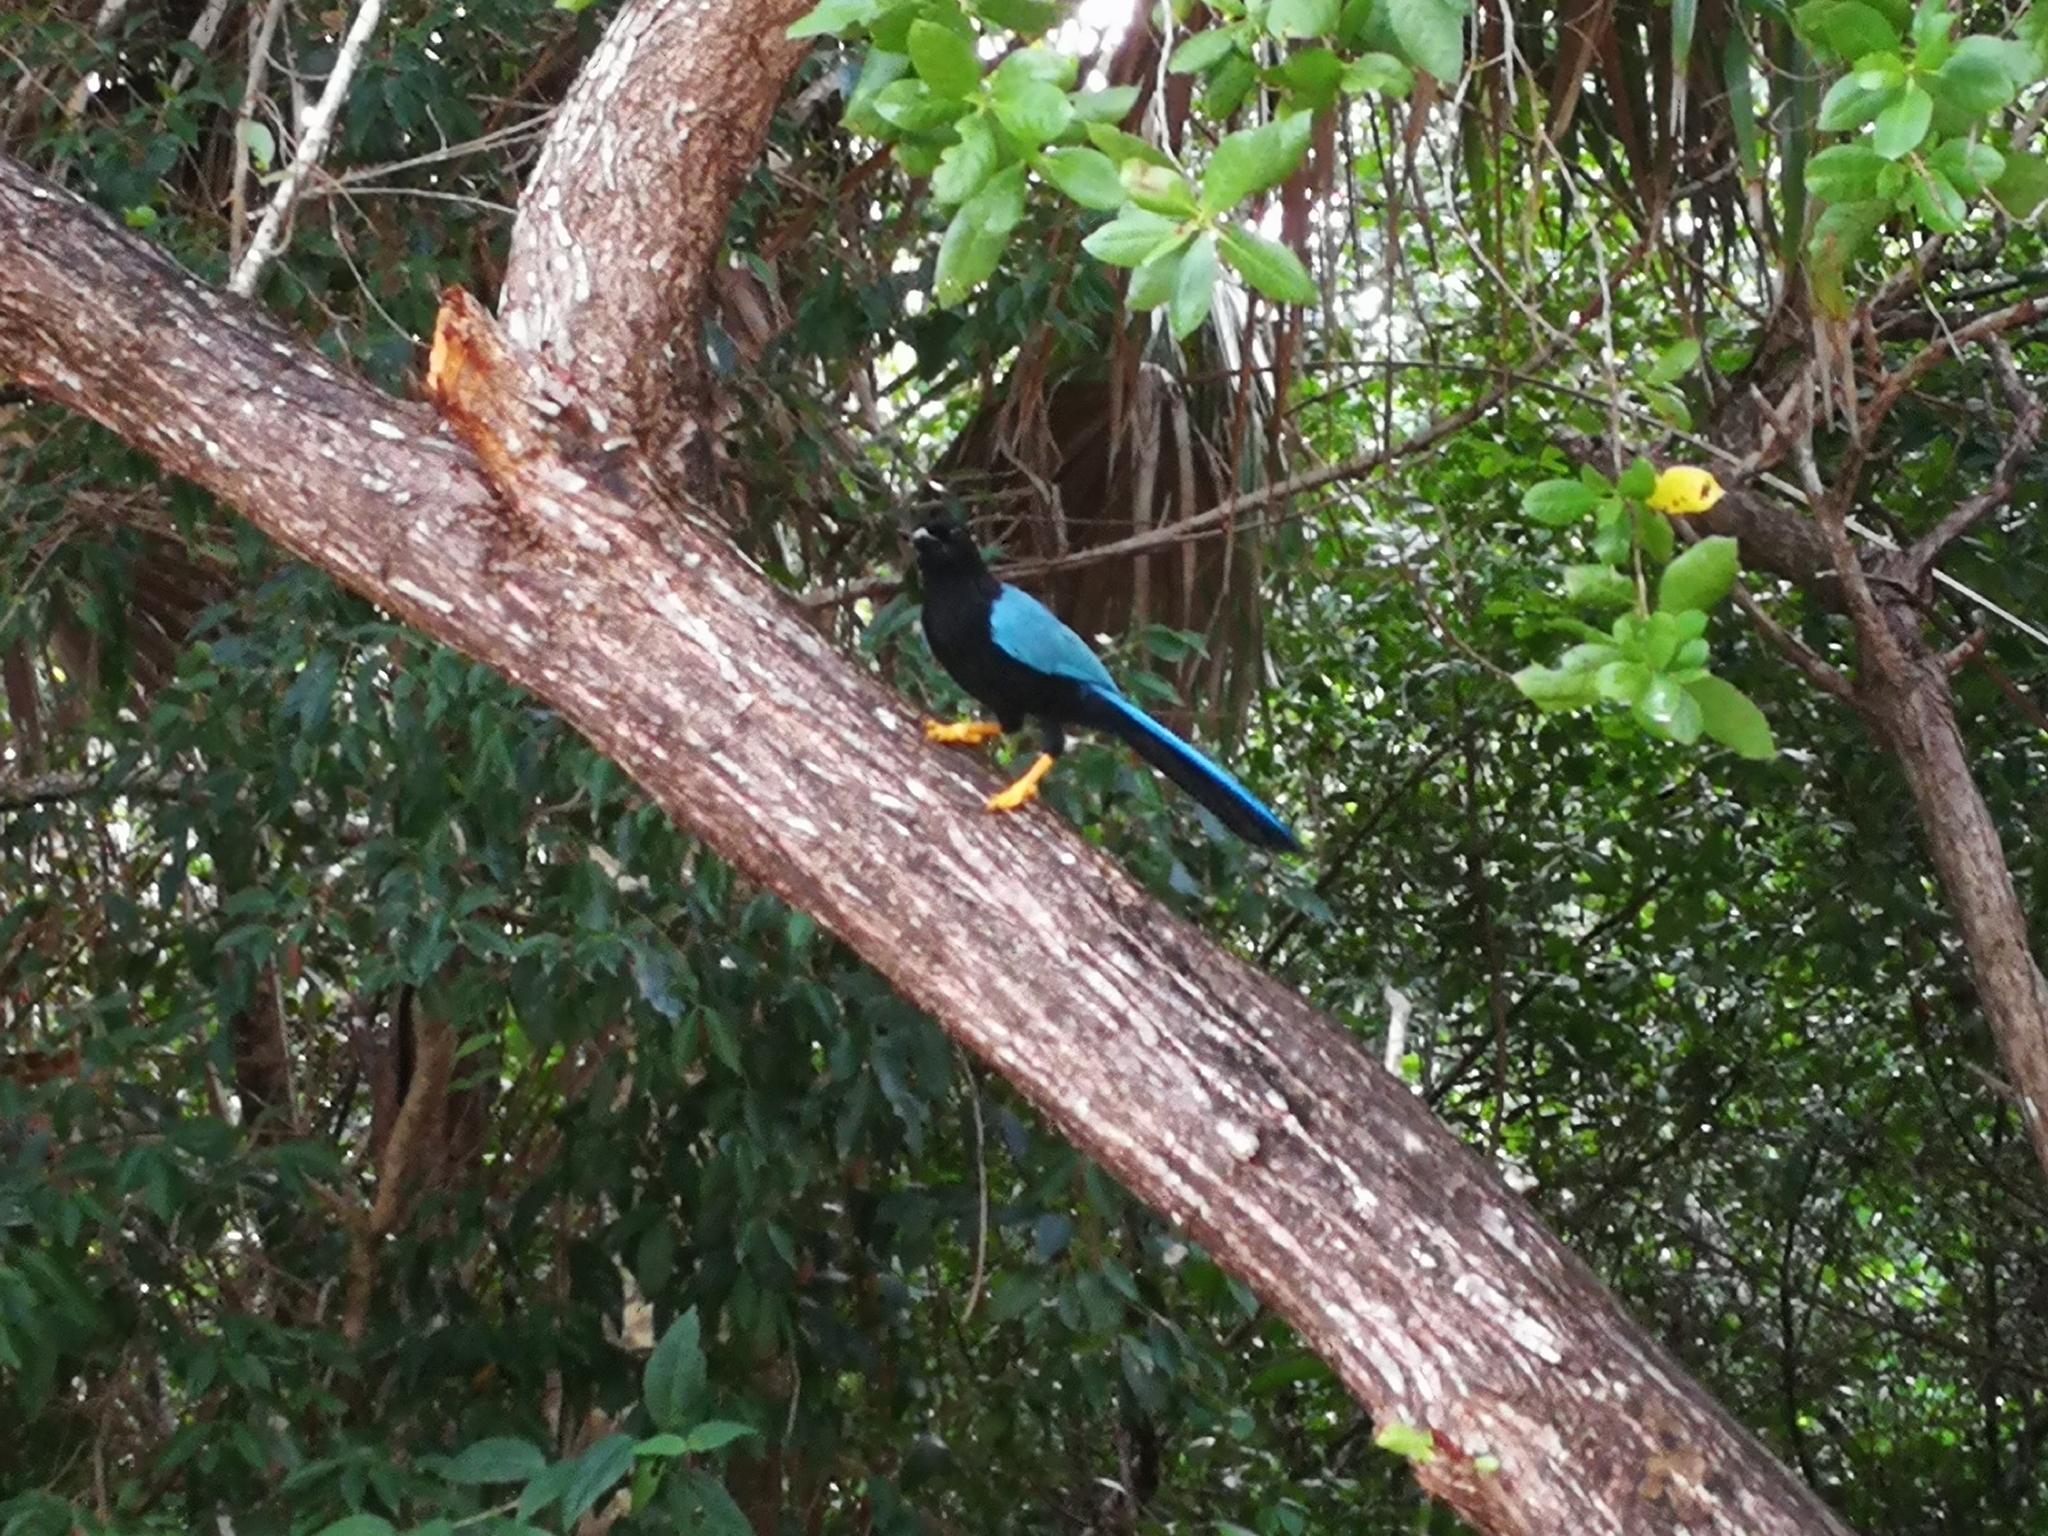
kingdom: Animalia
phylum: Chordata
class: Aves
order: Passeriformes
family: Corvidae
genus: Cyanocorax
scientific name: Cyanocorax yucatanicus
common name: Yucatan jay
